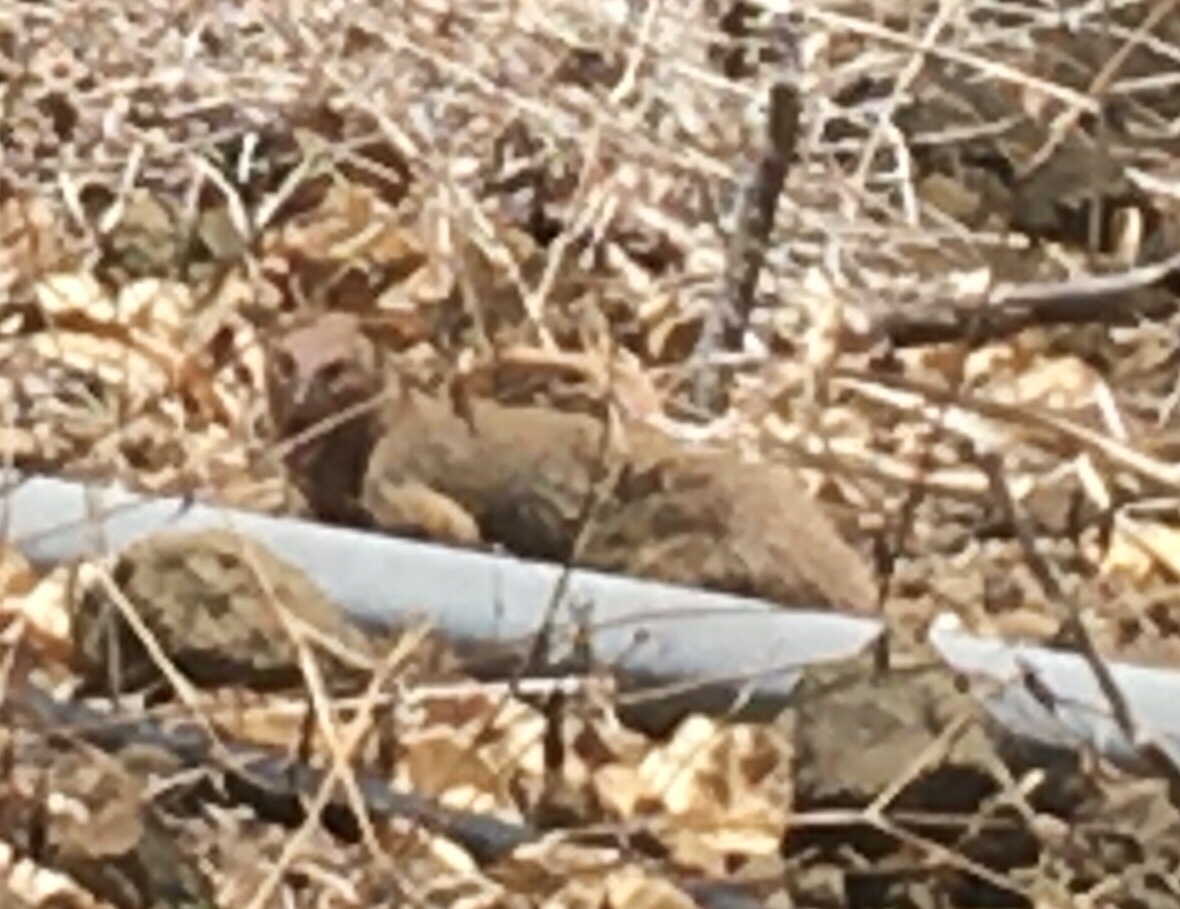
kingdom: Animalia
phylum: Chordata
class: Mammalia
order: Carnivora
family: Herpestidae
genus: Herpestes
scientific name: Herpestes javanicus
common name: Small asian mongoose
